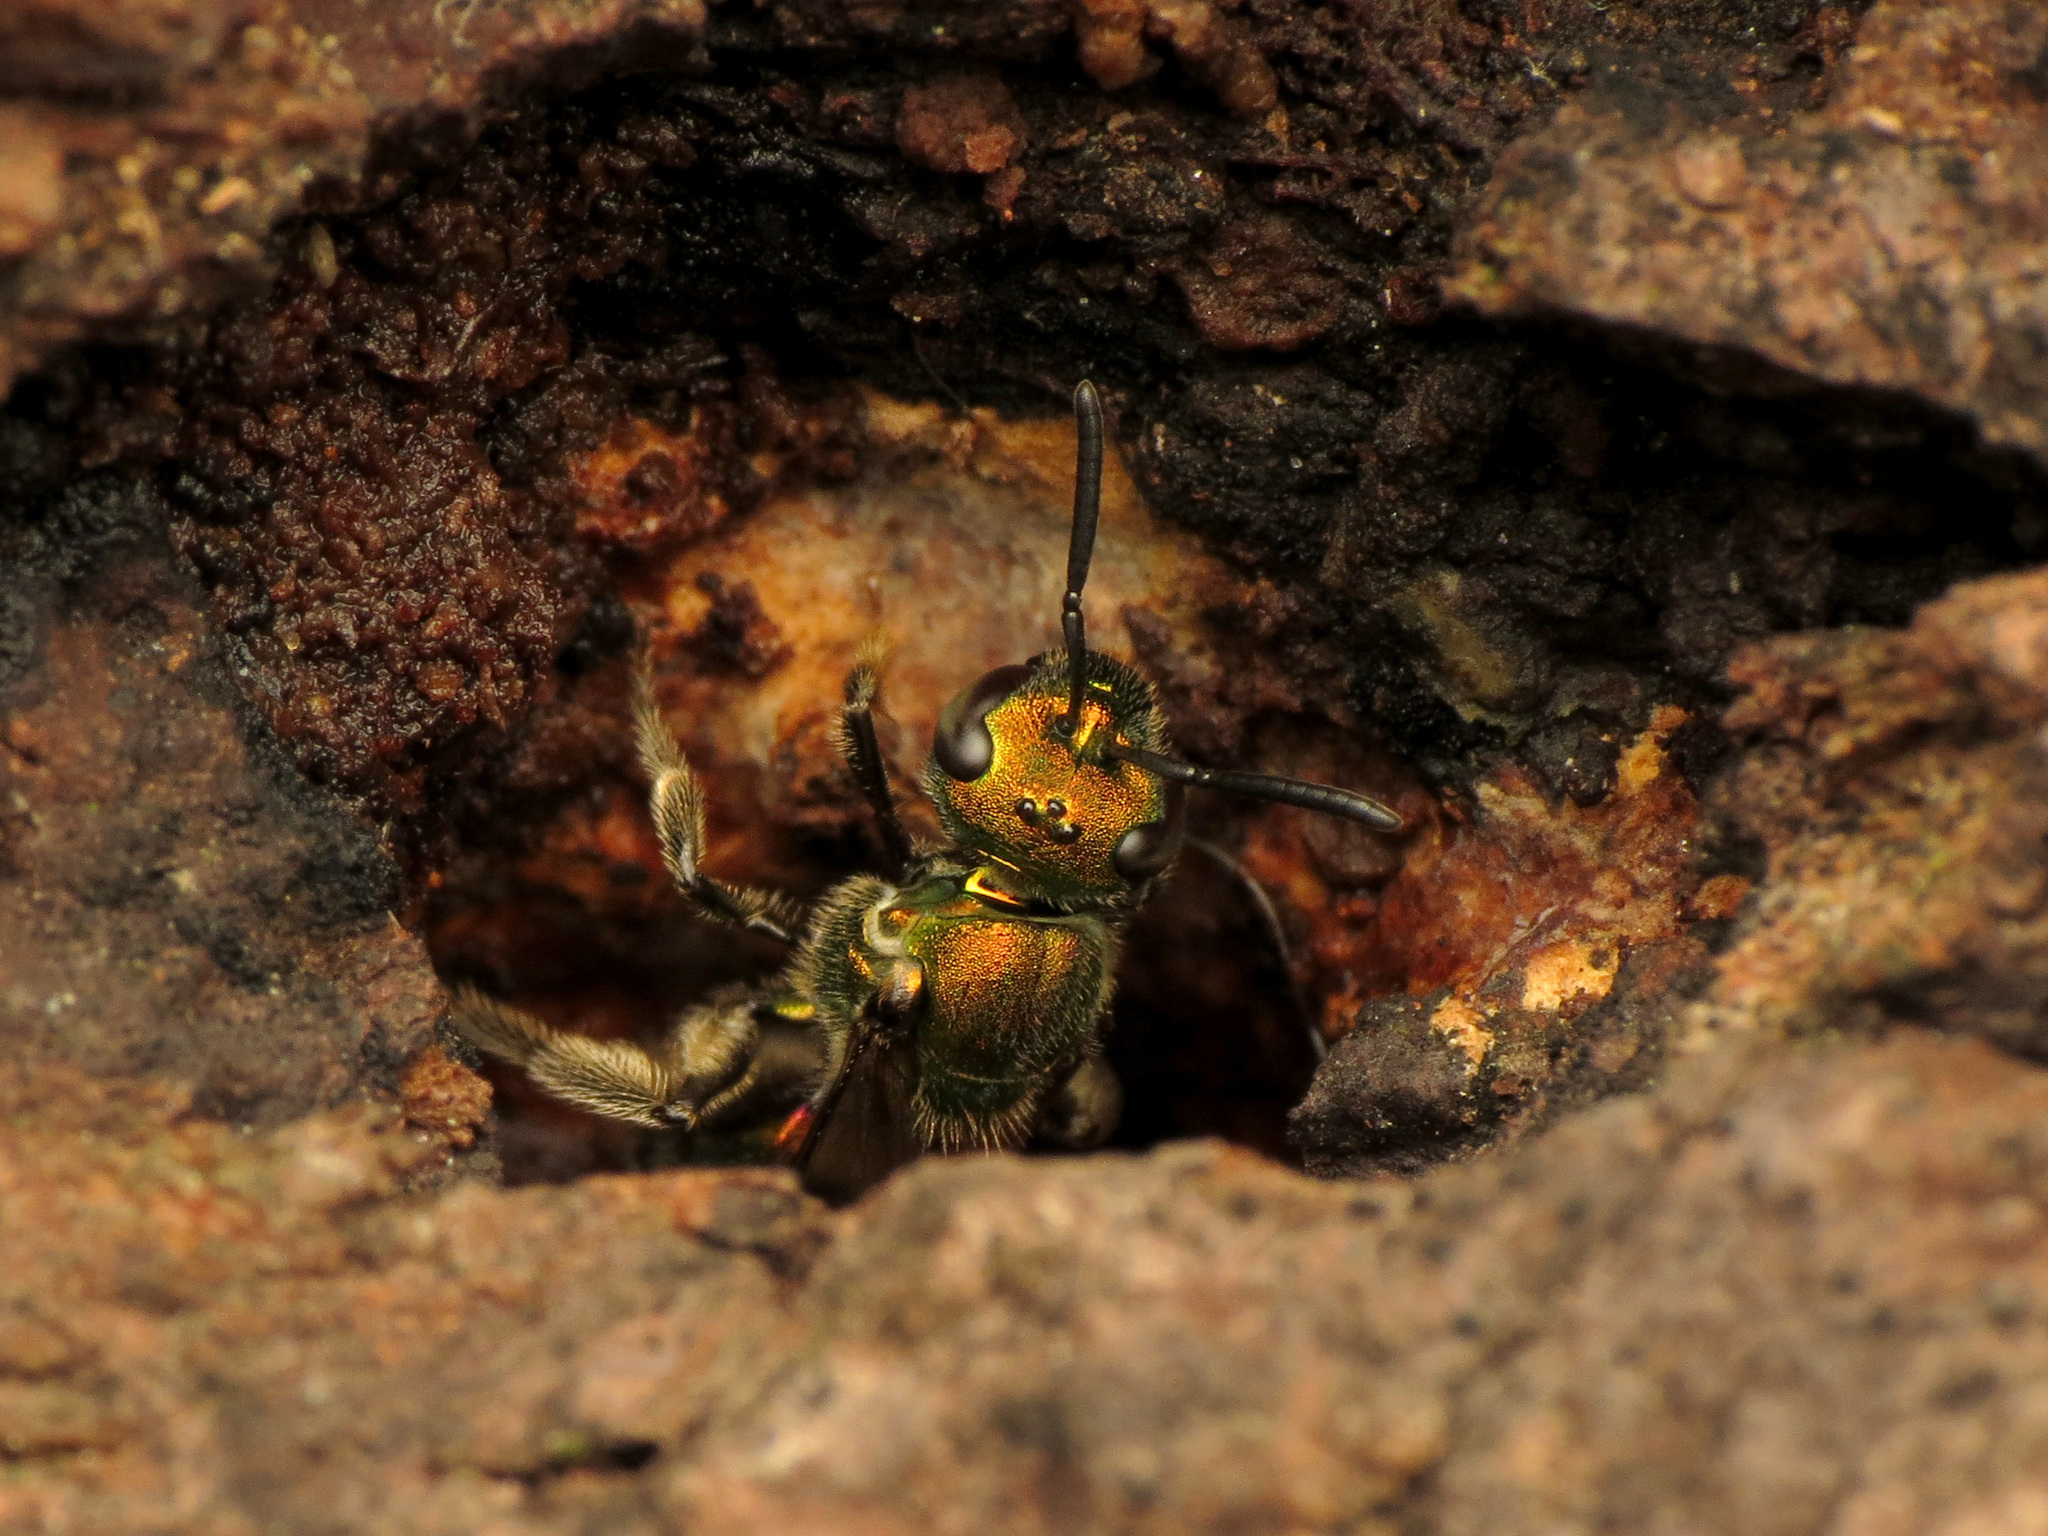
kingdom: Animalia
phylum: Arthropoda
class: Insecta
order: Hymenoptera
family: Halictidae
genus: Augochlora
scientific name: Augochlora pura
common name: Pure green sweat bee
